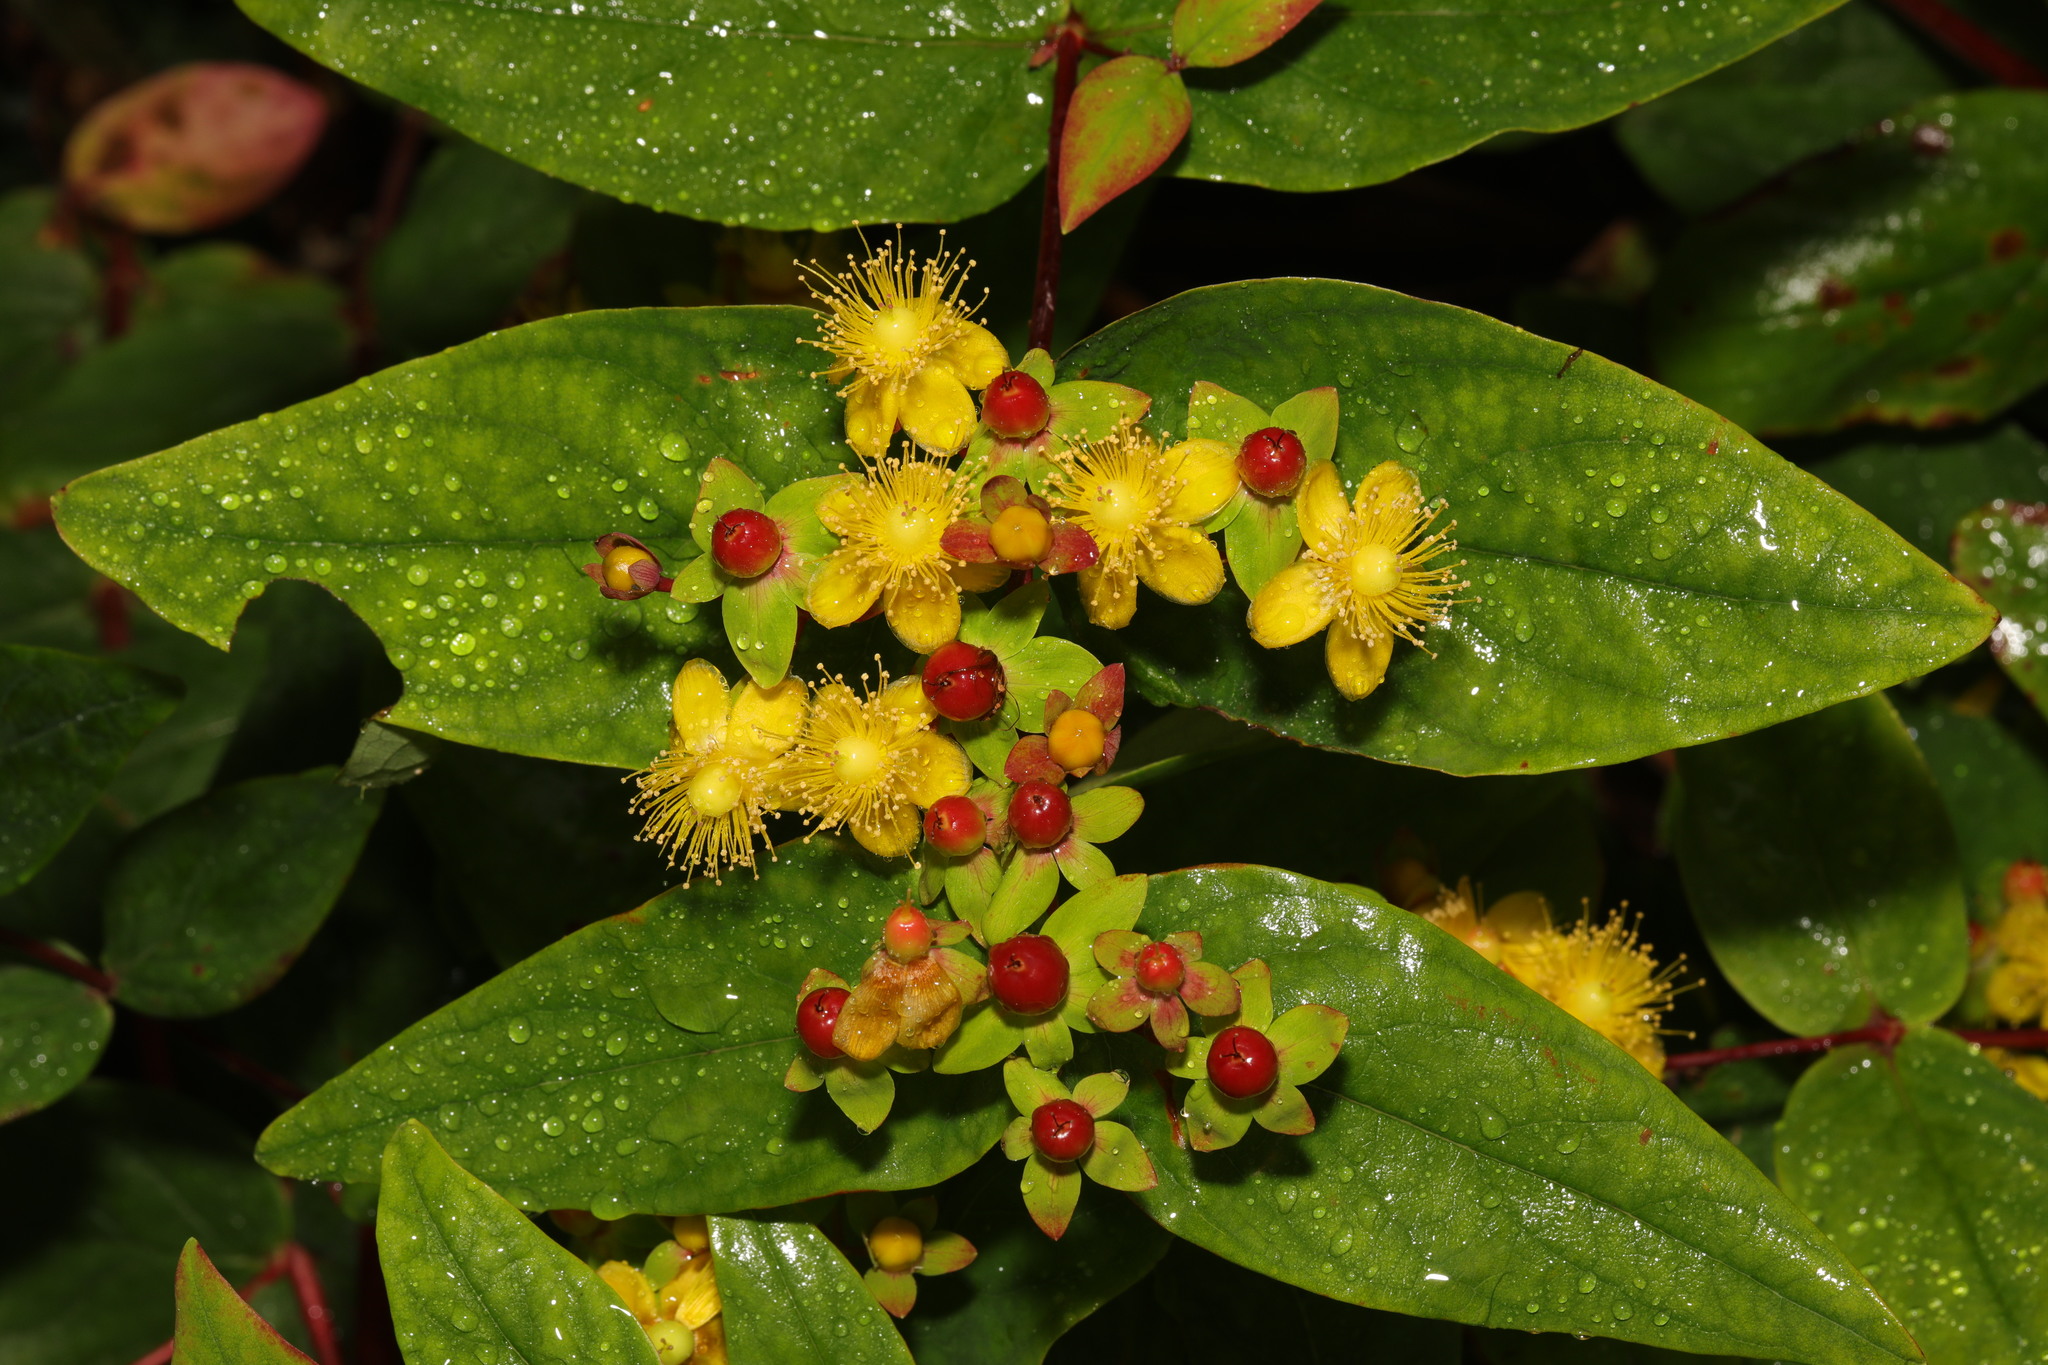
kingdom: Plantae
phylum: Tracheophyta
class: Magnoliopsida
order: Malpighiales
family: Hypericaceae
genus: Hypericum
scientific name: Hypericum androsaemum
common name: Sweet-amber
